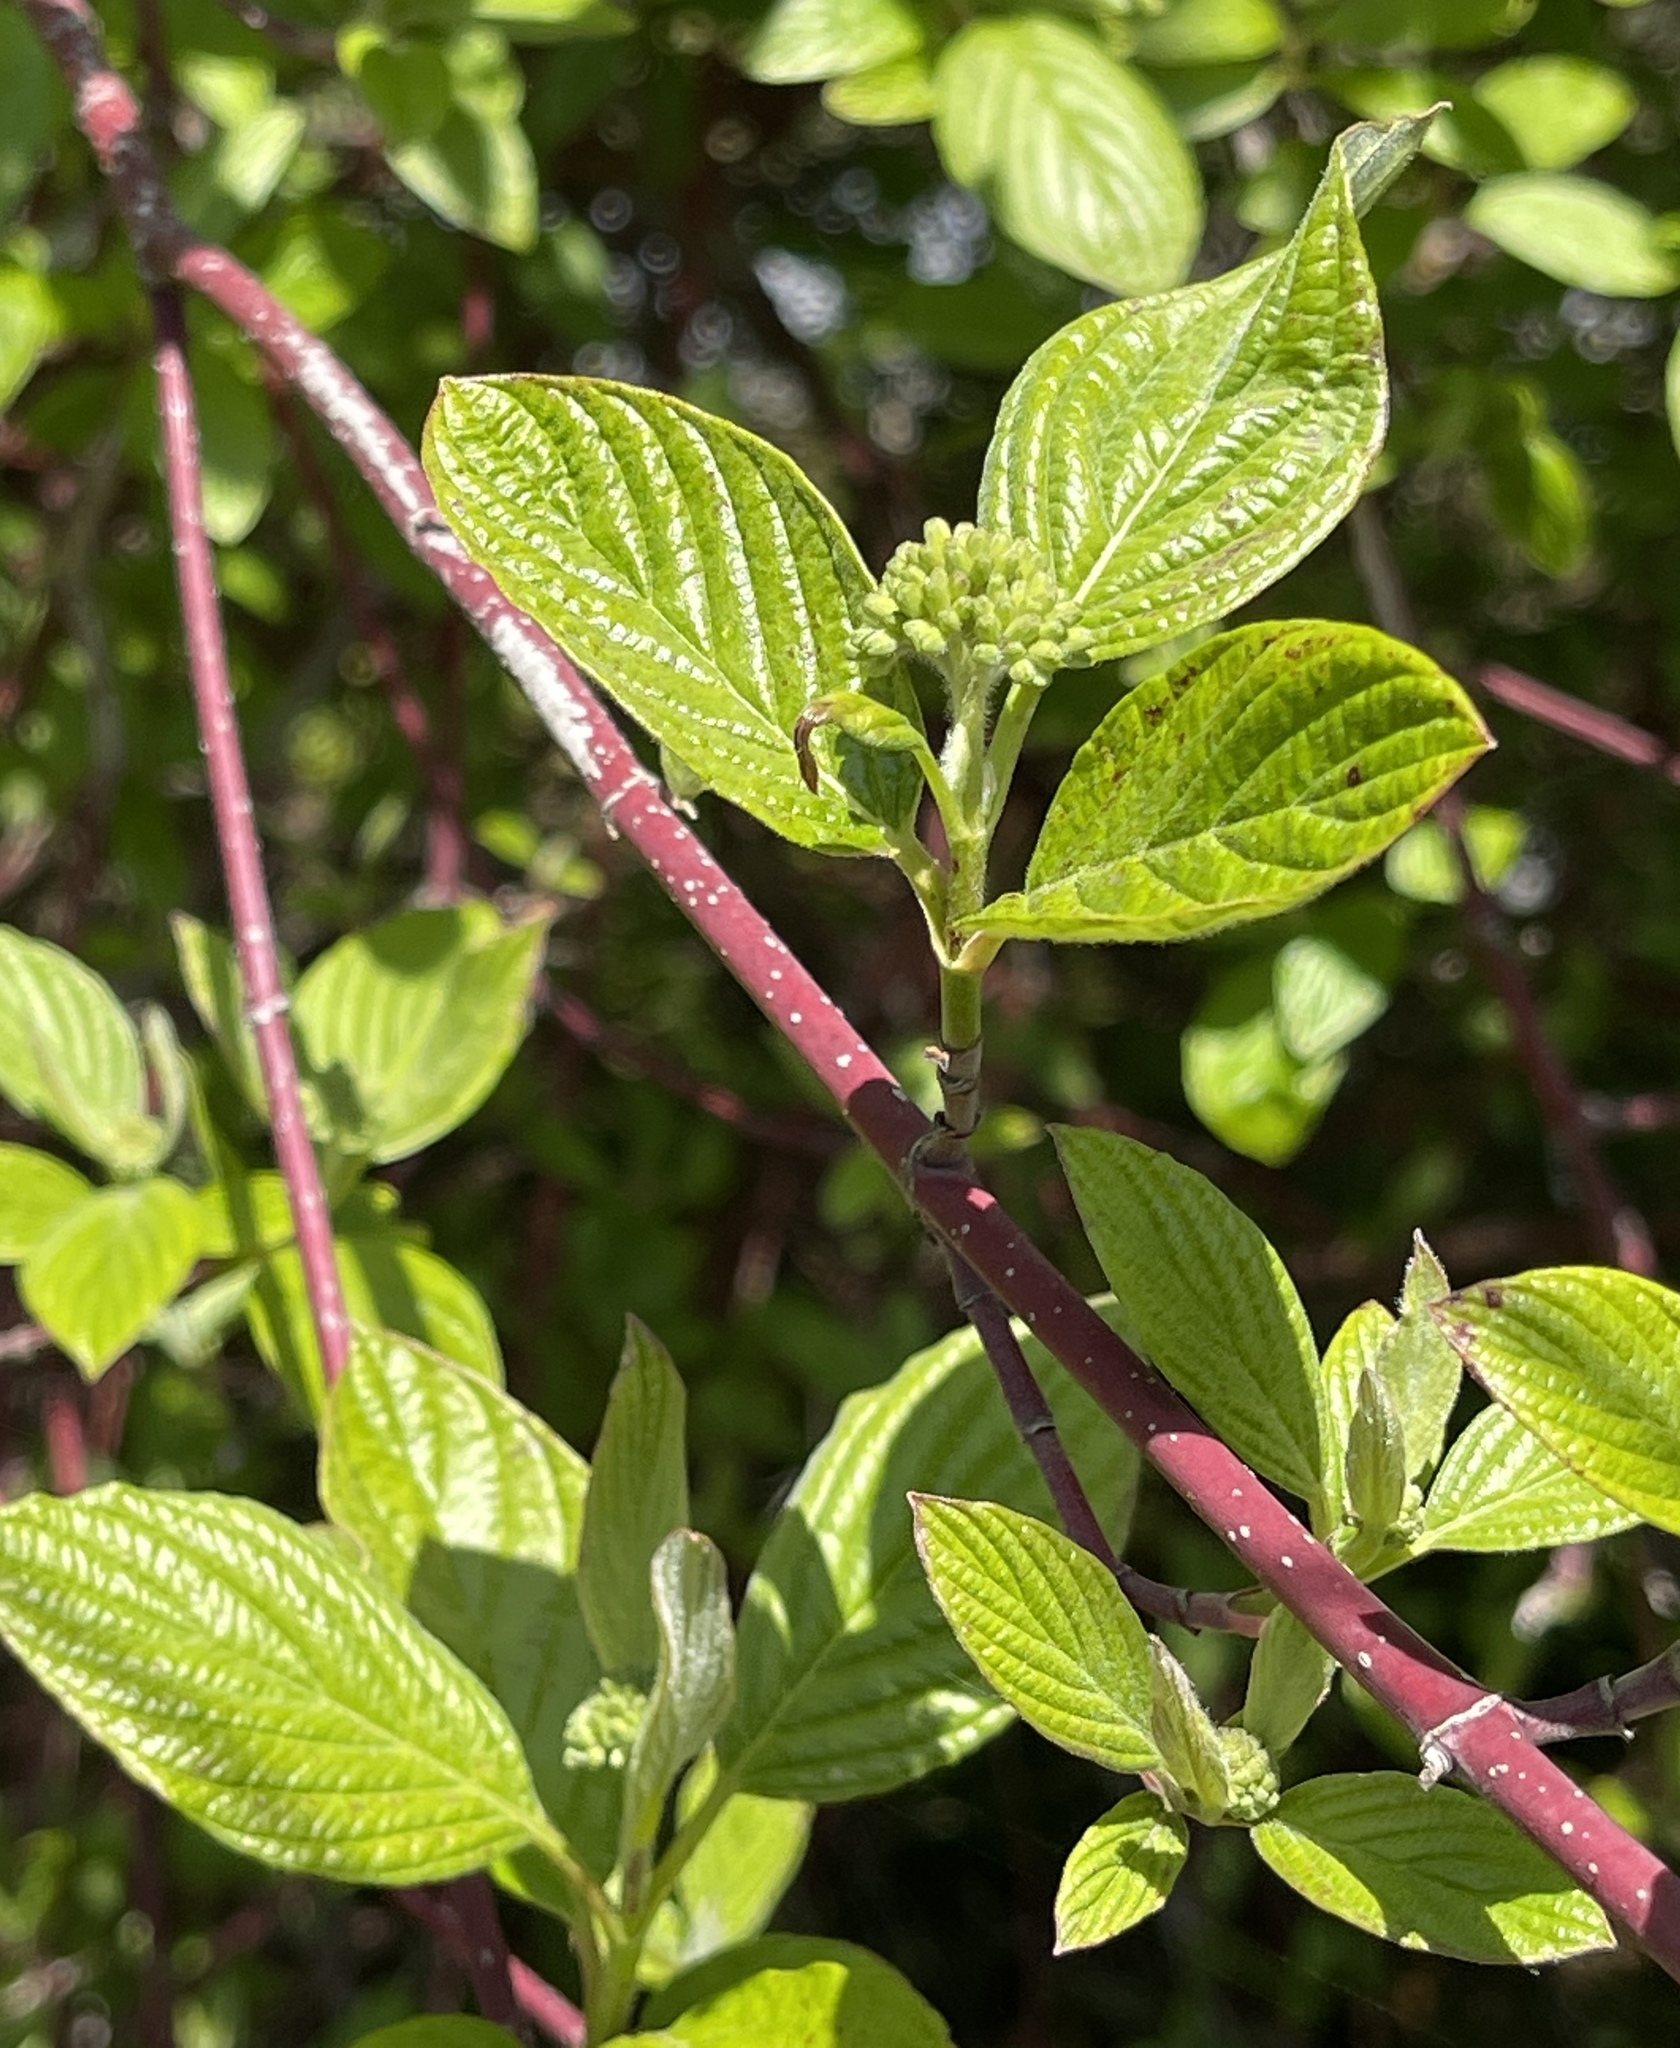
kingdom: Plantae
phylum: Tracheophyta
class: Magnoliopsida
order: Cornales
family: Cornaceae
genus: Cornus
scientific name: Cornus sericea
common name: Red-osier dogwood
